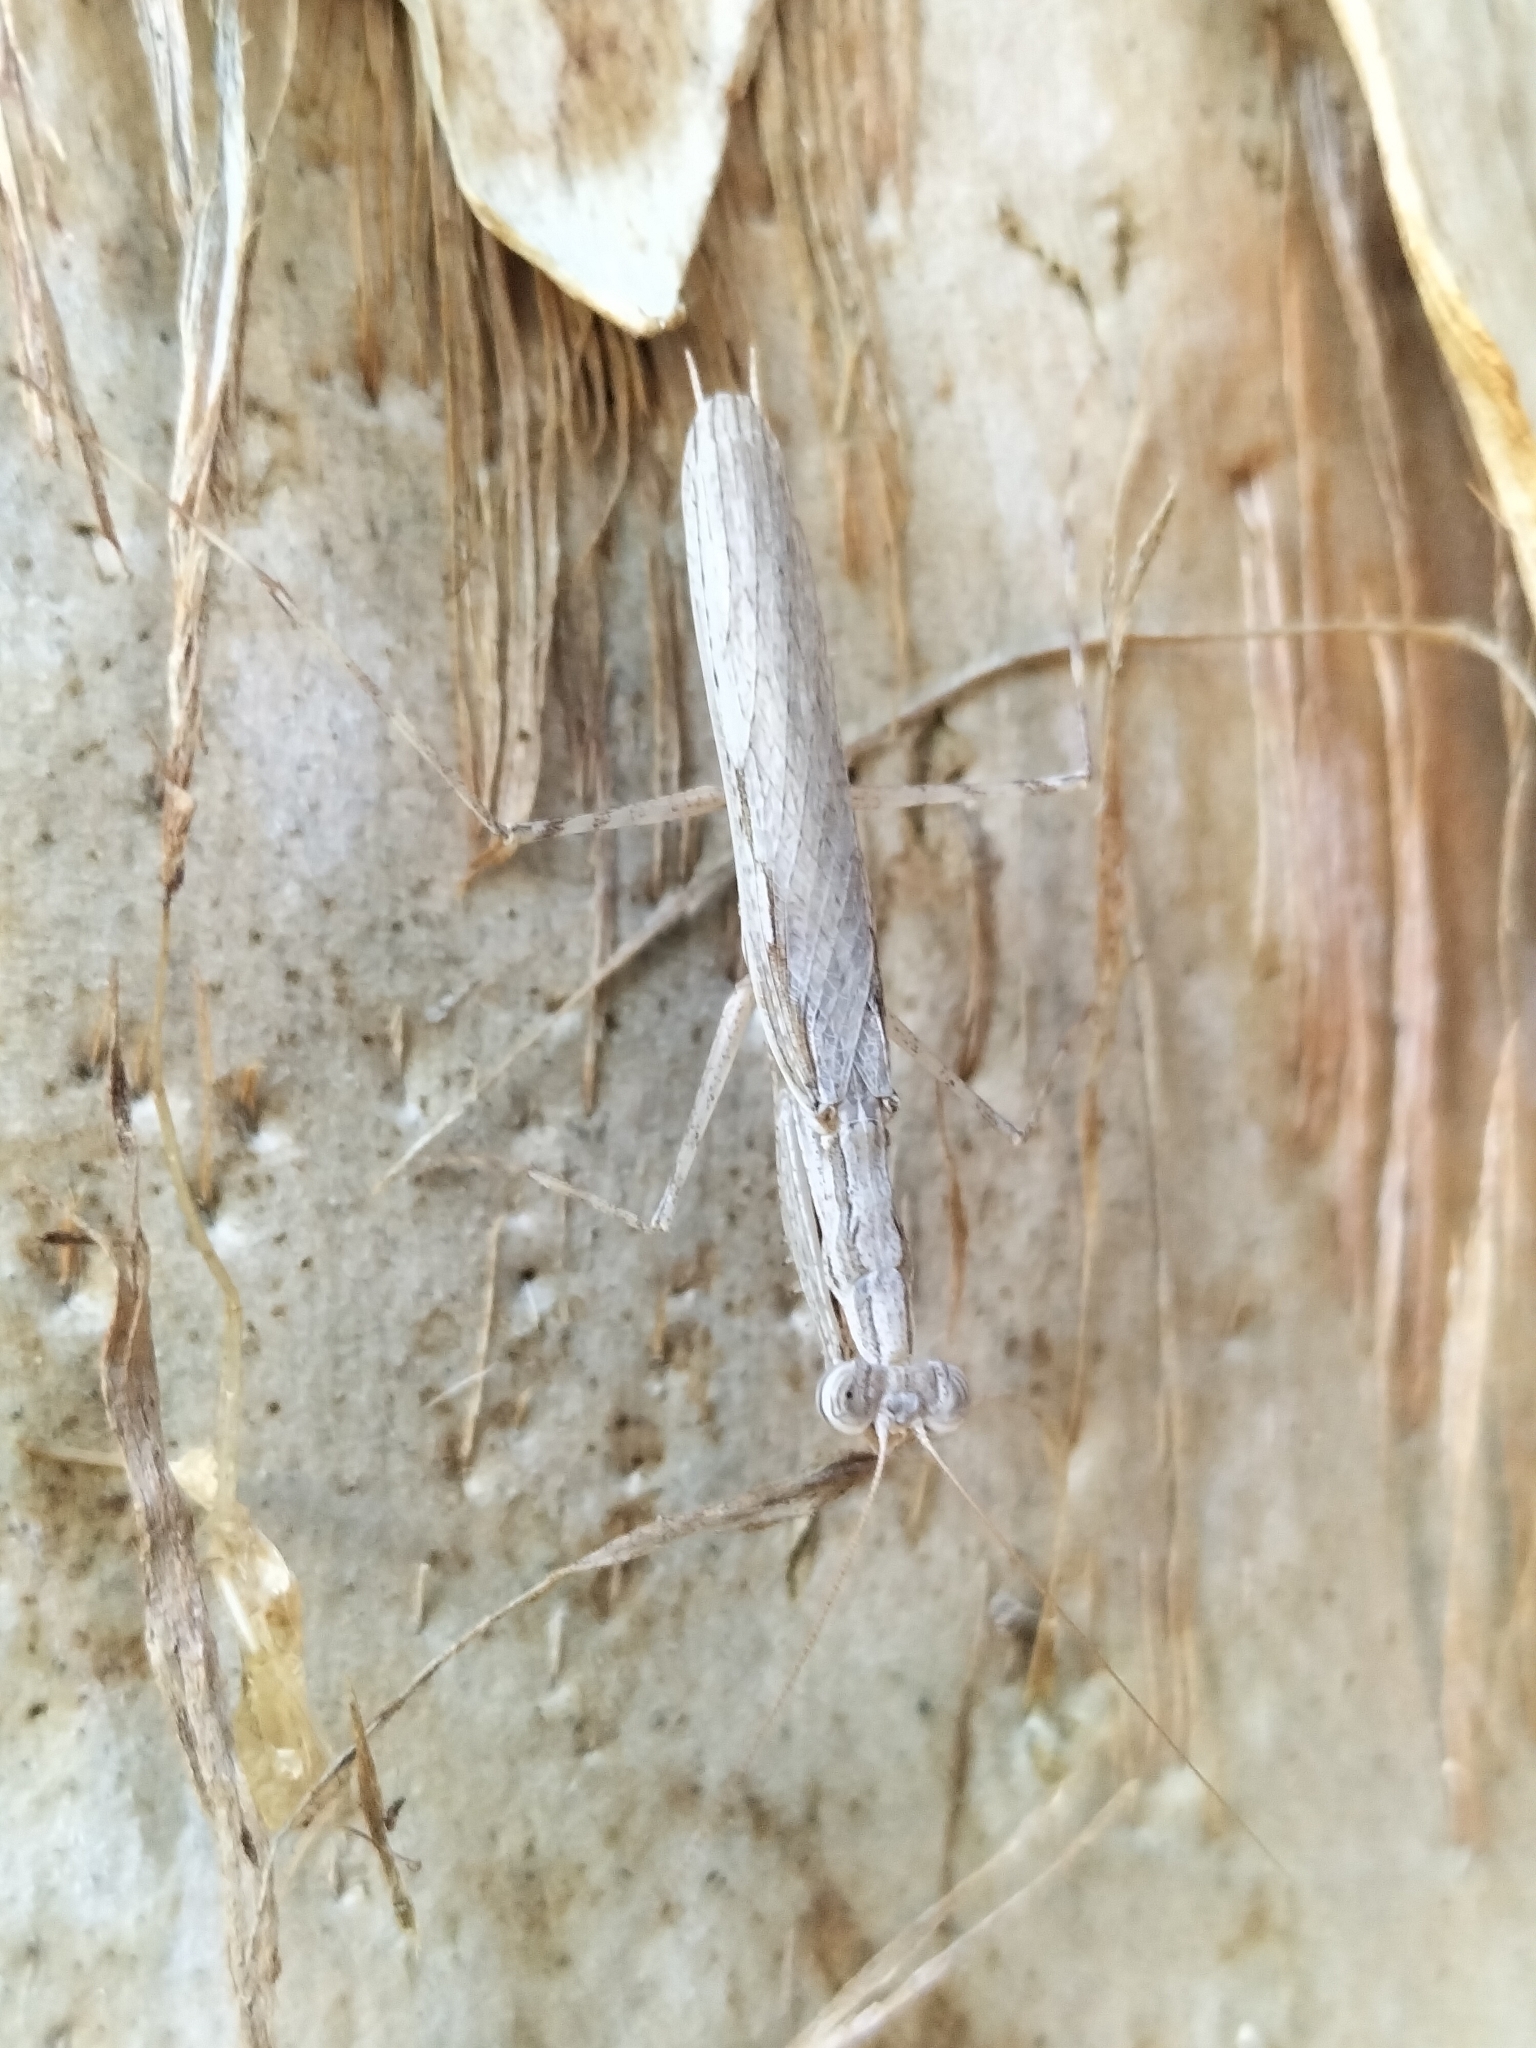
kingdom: Animalia
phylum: Arthropoda
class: Insecta
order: Mantodea
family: Nanomantidae
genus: Ima
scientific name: Ima fusca
